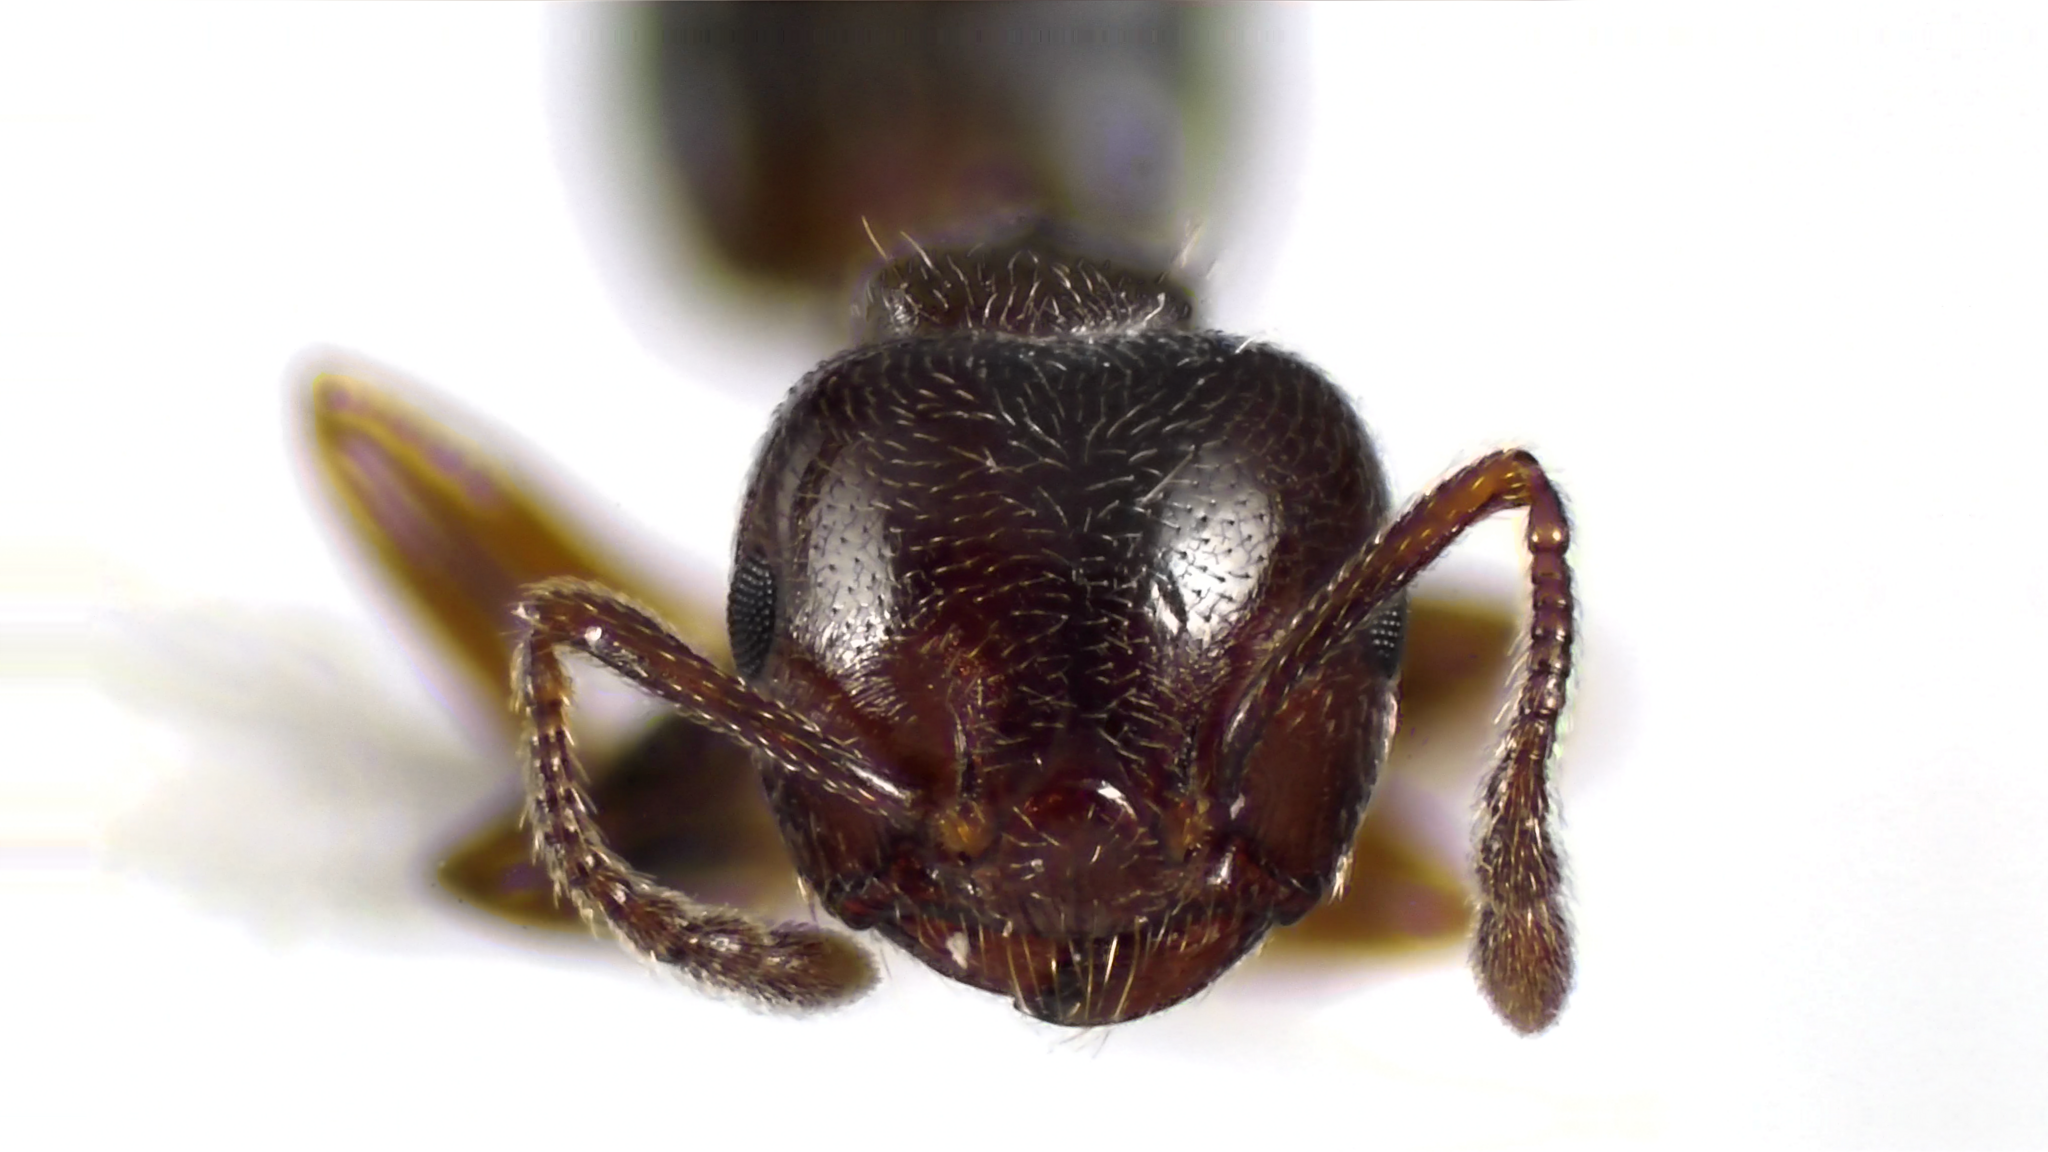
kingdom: Animalia
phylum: Arthropoda
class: Insecta
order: Hymenoptera
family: Formicidae
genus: Crematogaster
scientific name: Crematogaster ashmeadi
